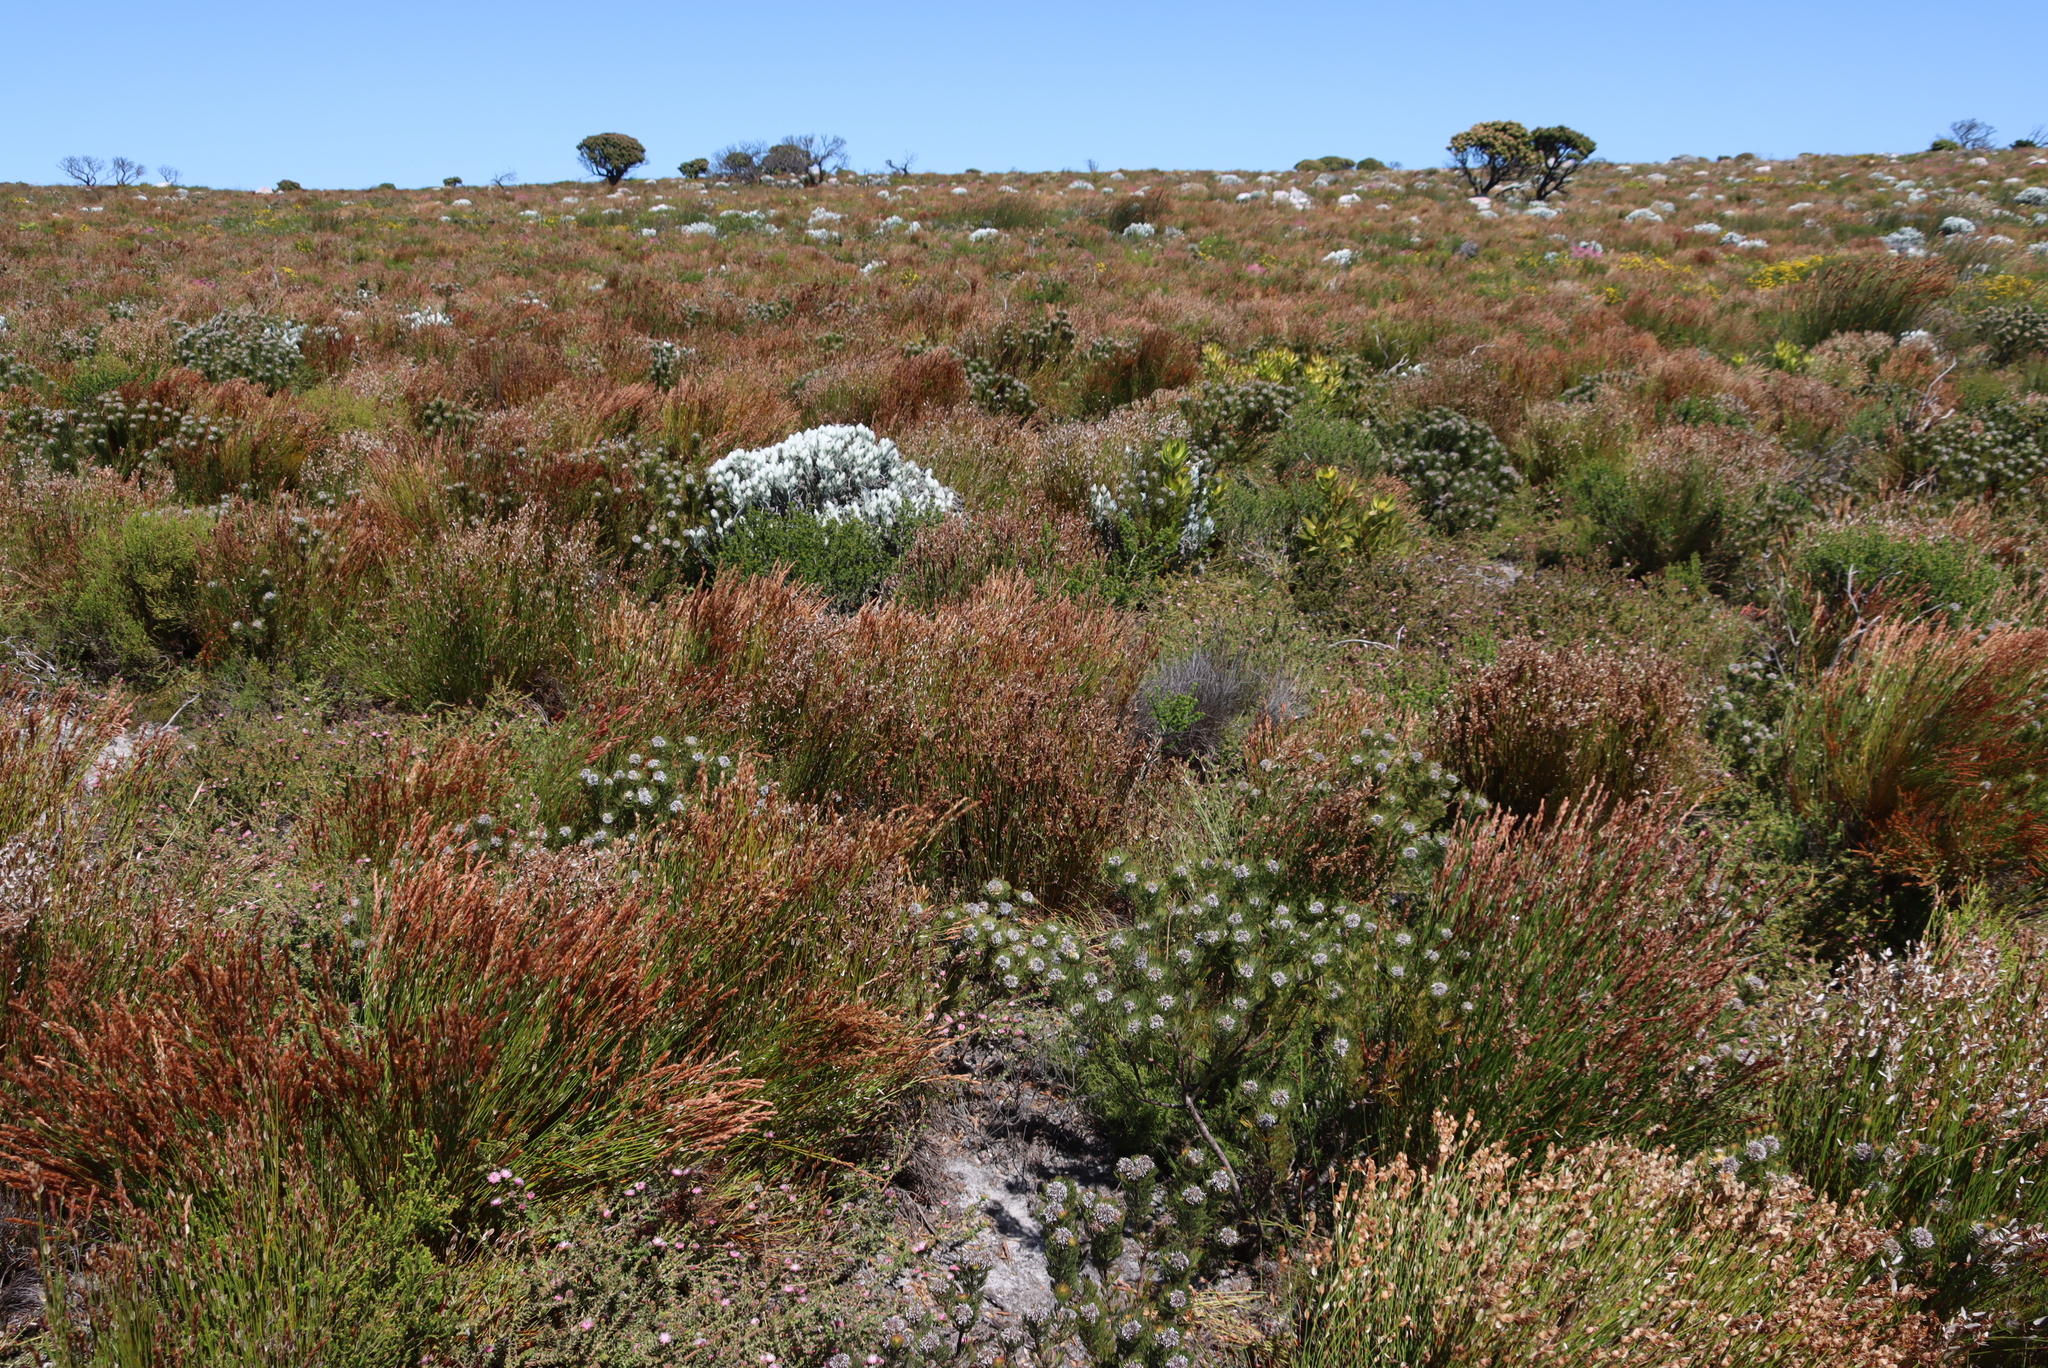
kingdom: Plantae
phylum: Tracheophyta
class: Magnoliopsida
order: Proteales
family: Proteaceae
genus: Serruria
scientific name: Serruria villosa
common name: Golden spiderhead
